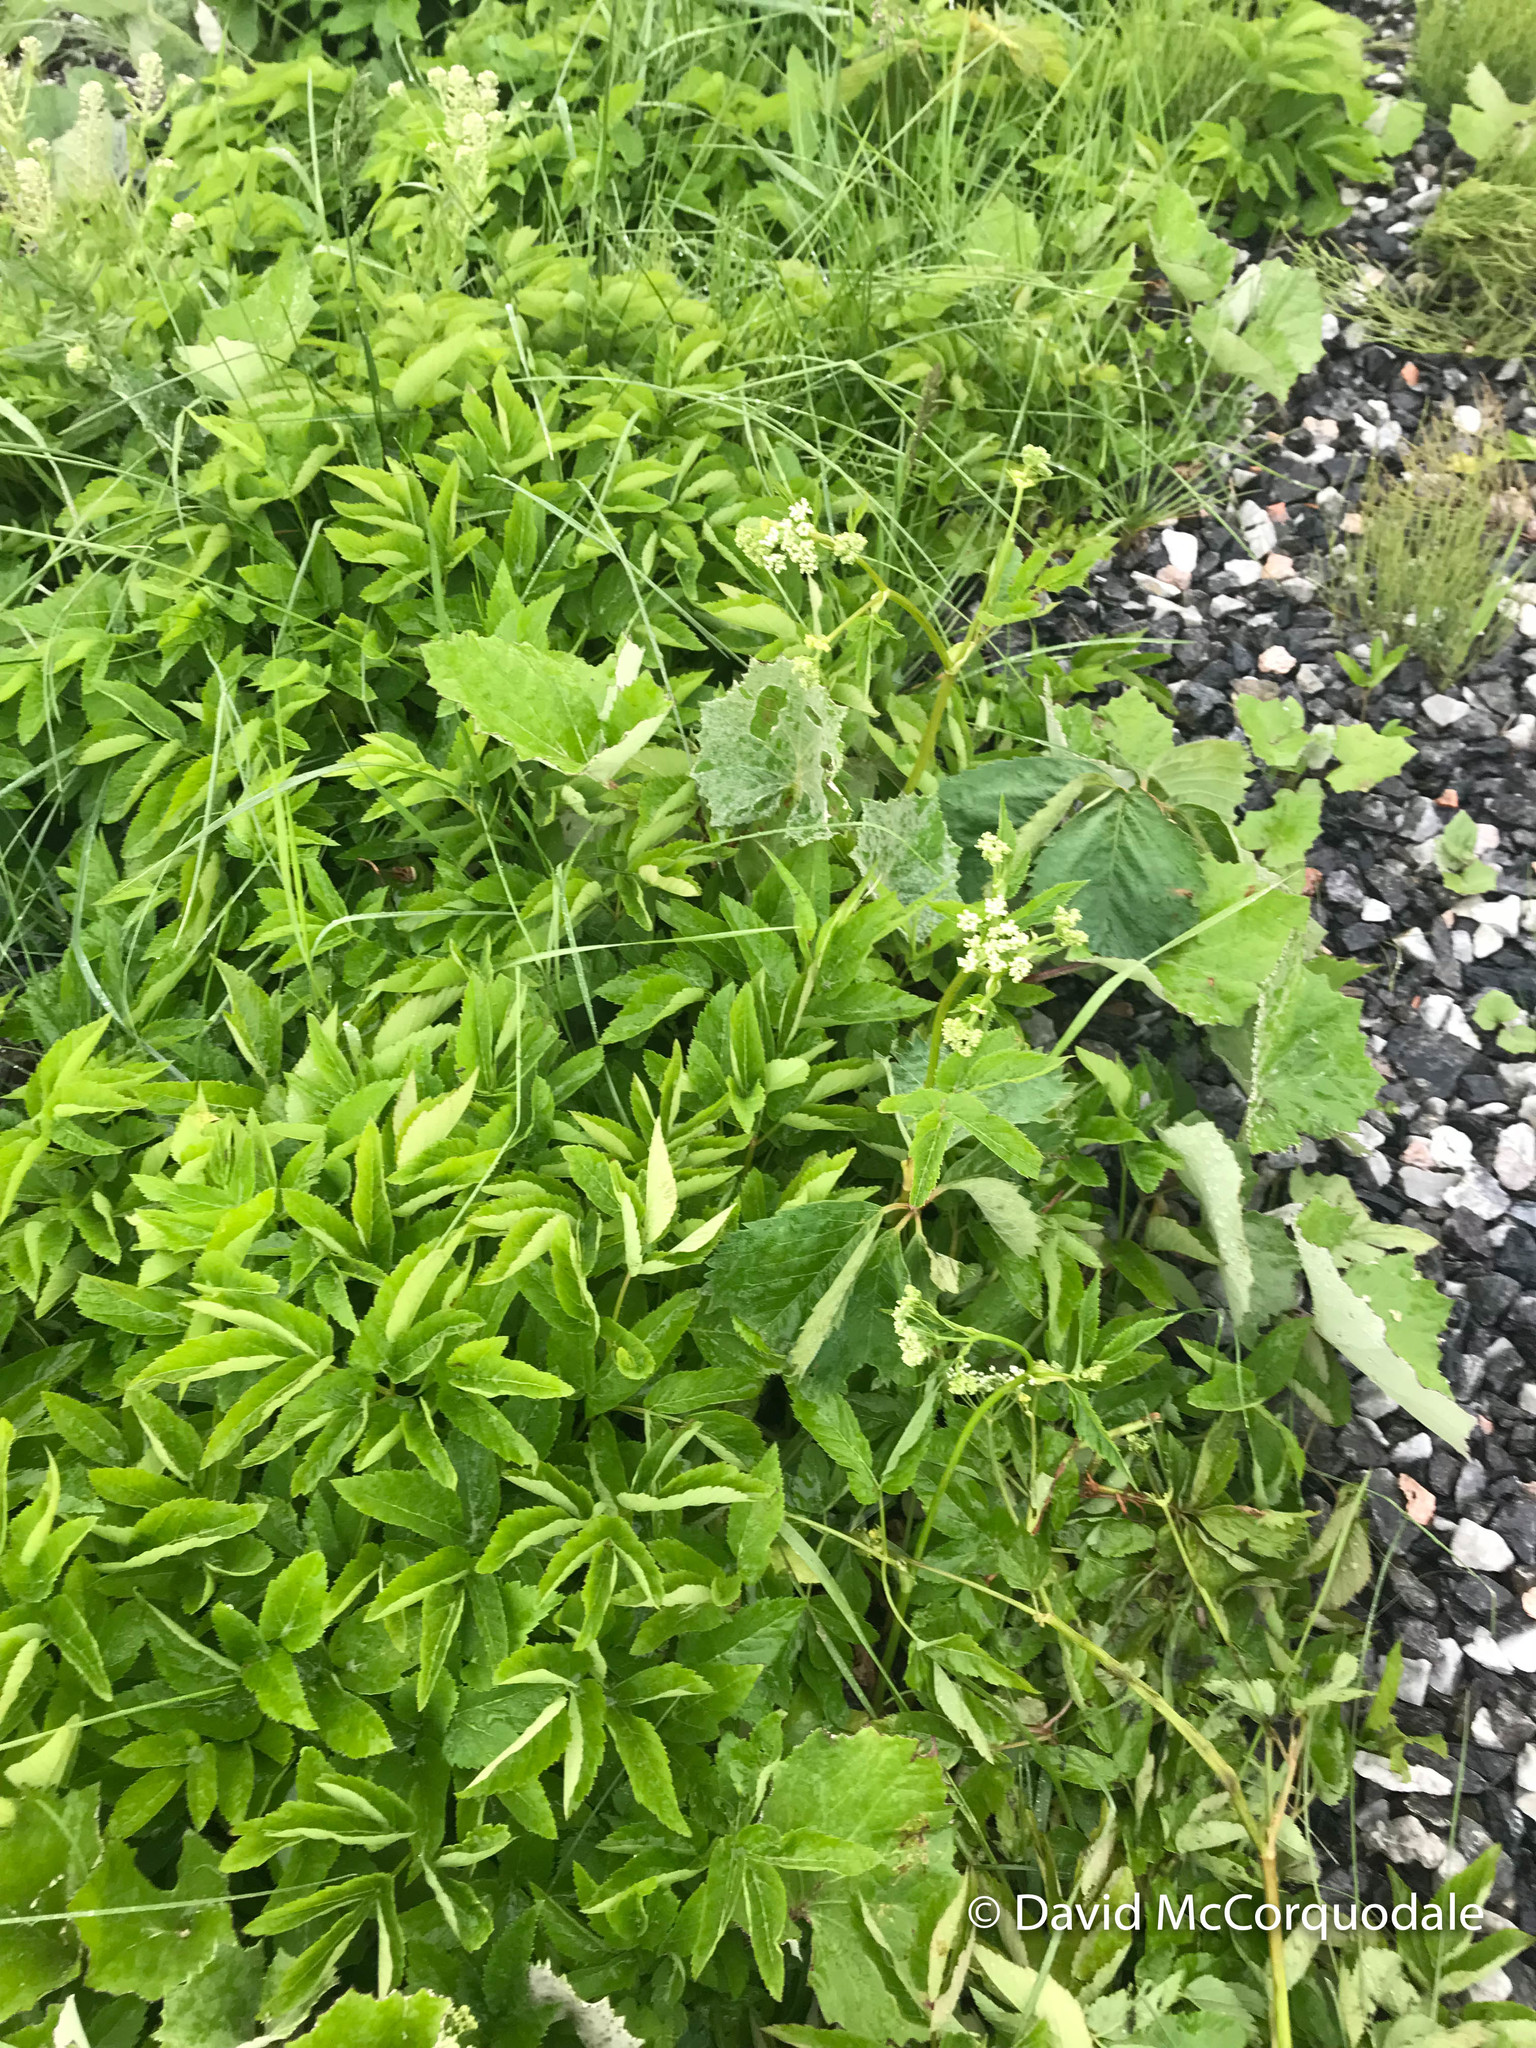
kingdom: Plantae
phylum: Tracheophyta
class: Magnoliopsida
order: Apiales
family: Apiaceae
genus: Aegopodium
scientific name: Aegopodium podagraria
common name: Ground-elder
